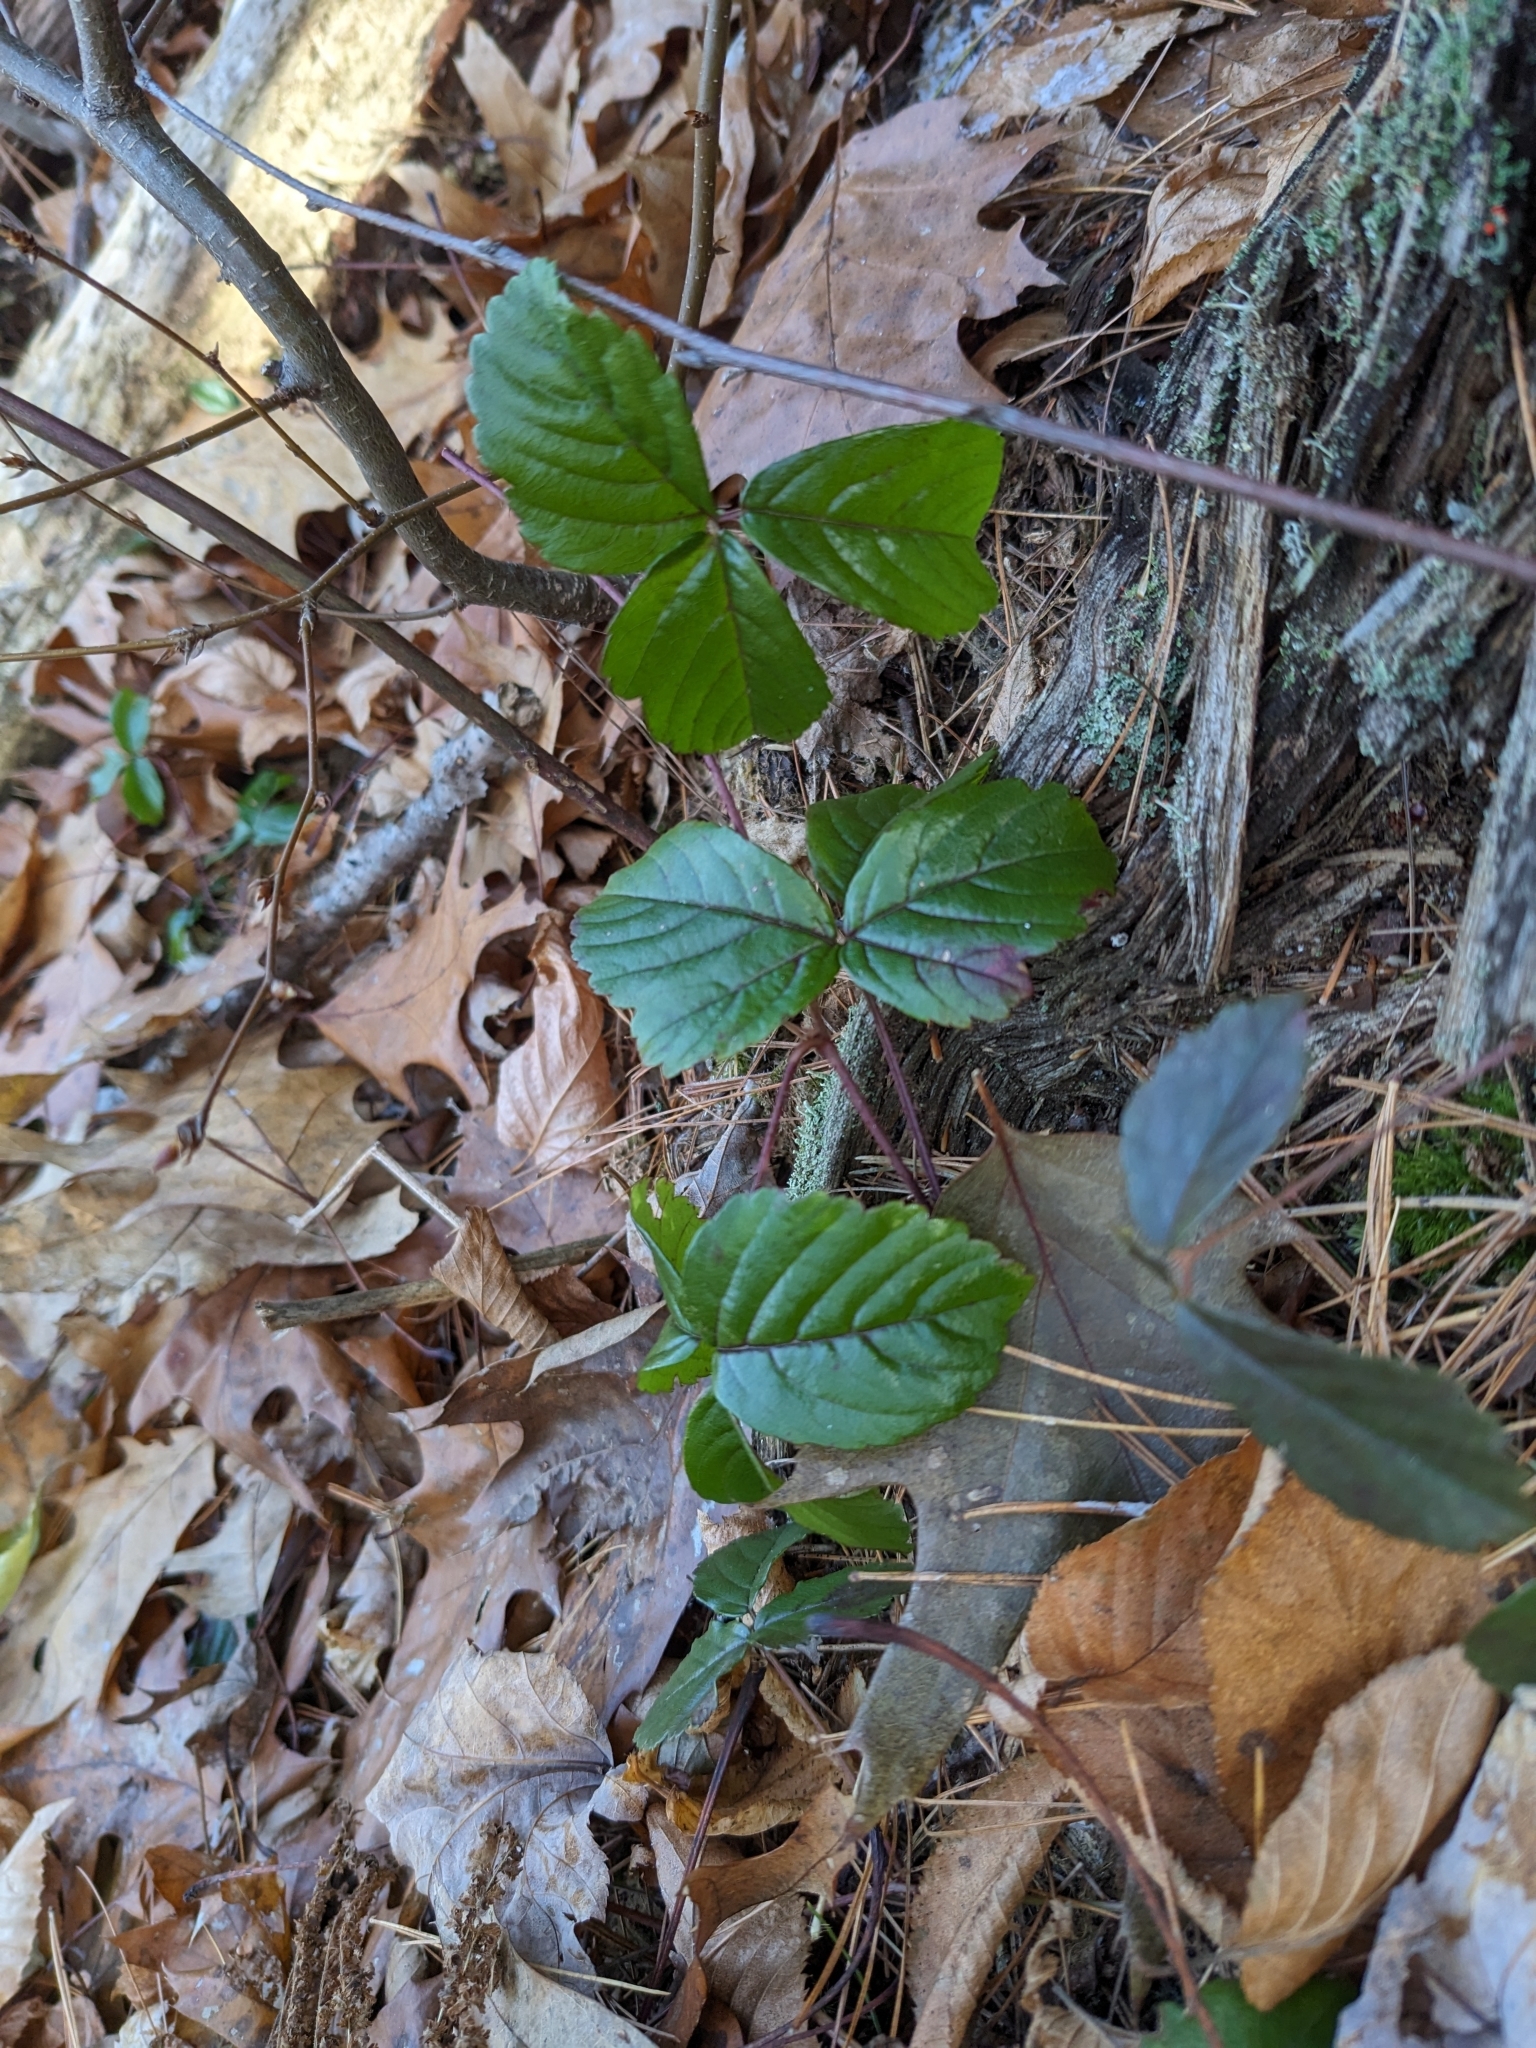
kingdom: Plantae
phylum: Tracheophyta
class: Magnoliopsida
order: Rosales
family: Rosaceae
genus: Rubus
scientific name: Rubus hispidus
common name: Running blackberry
